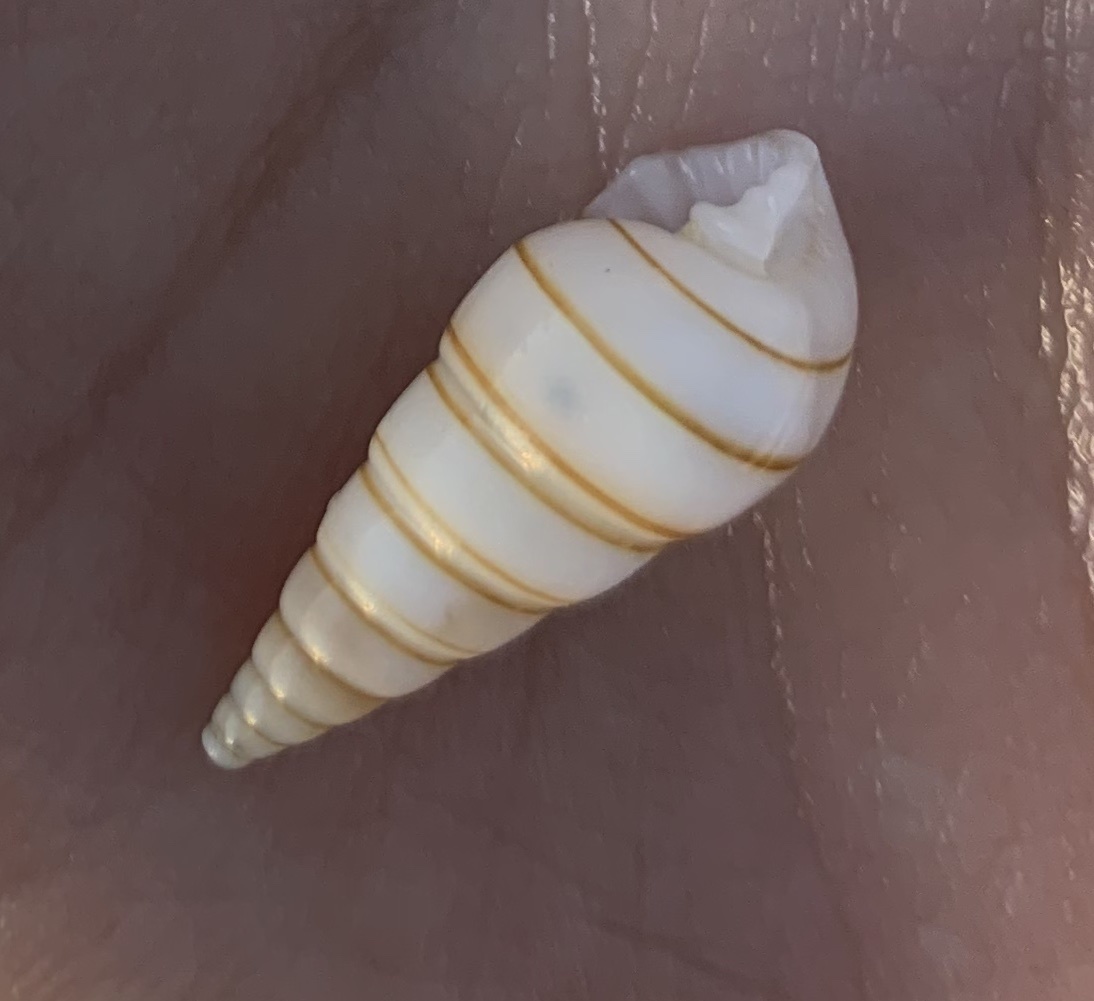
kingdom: Animalia
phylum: Mollusca
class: Gastropoda
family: Pyramidellidae
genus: Pyramidella
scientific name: Pyramidella dolabrata
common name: Giant atlantic pyram
